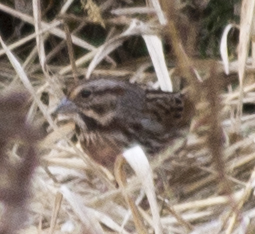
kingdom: Animalia
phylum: Chordata
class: Aves
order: Passeriformes
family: Passerellidae
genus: Melospiza
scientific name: Melospiza melodia
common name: Song sparrow
